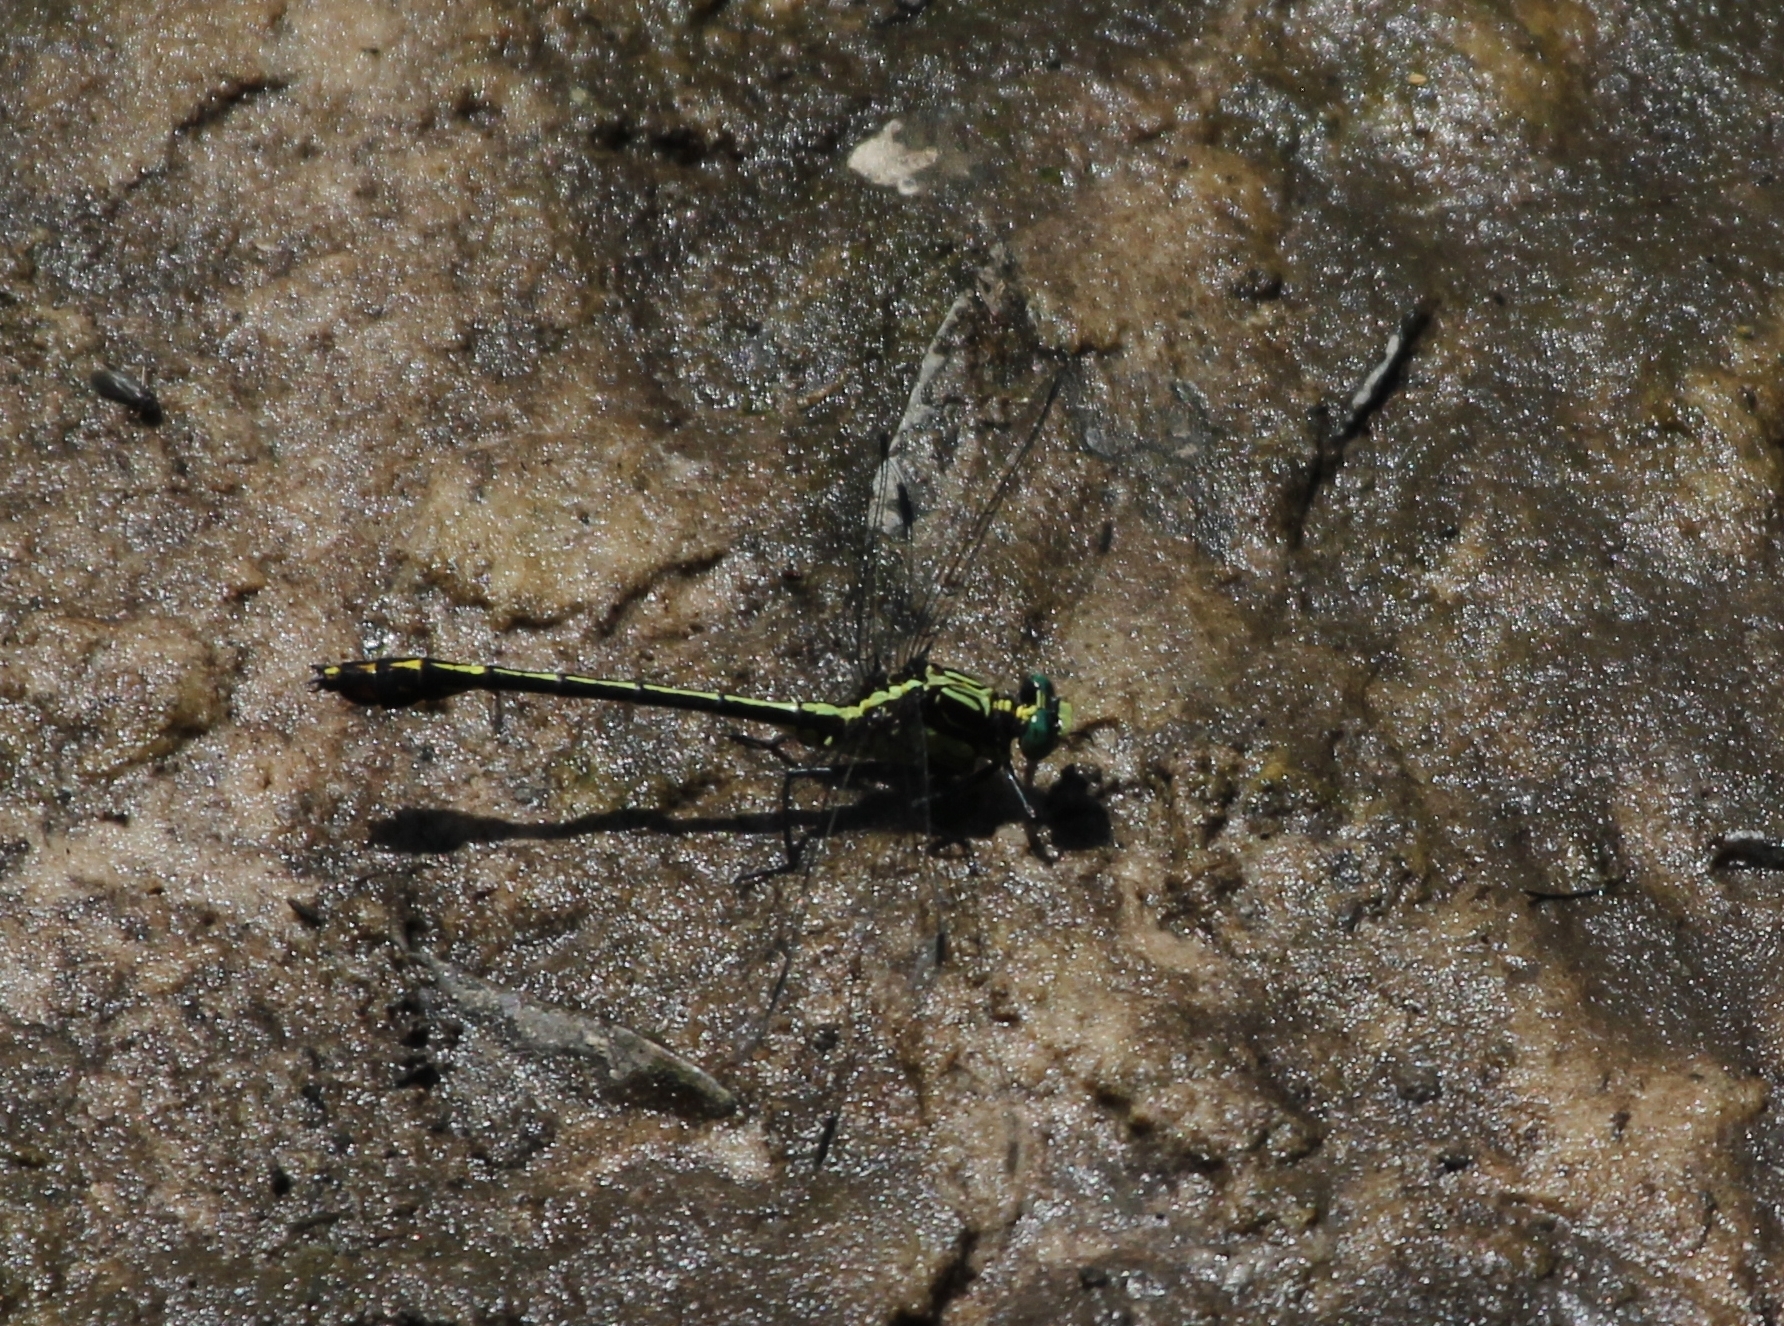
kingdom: Animalia
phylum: Arthropoda
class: Insecta
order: Odonata
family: Gomphidae
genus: Dromogomphus
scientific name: Dromogomphus spinosus
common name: Black-shouldered spinyleg
